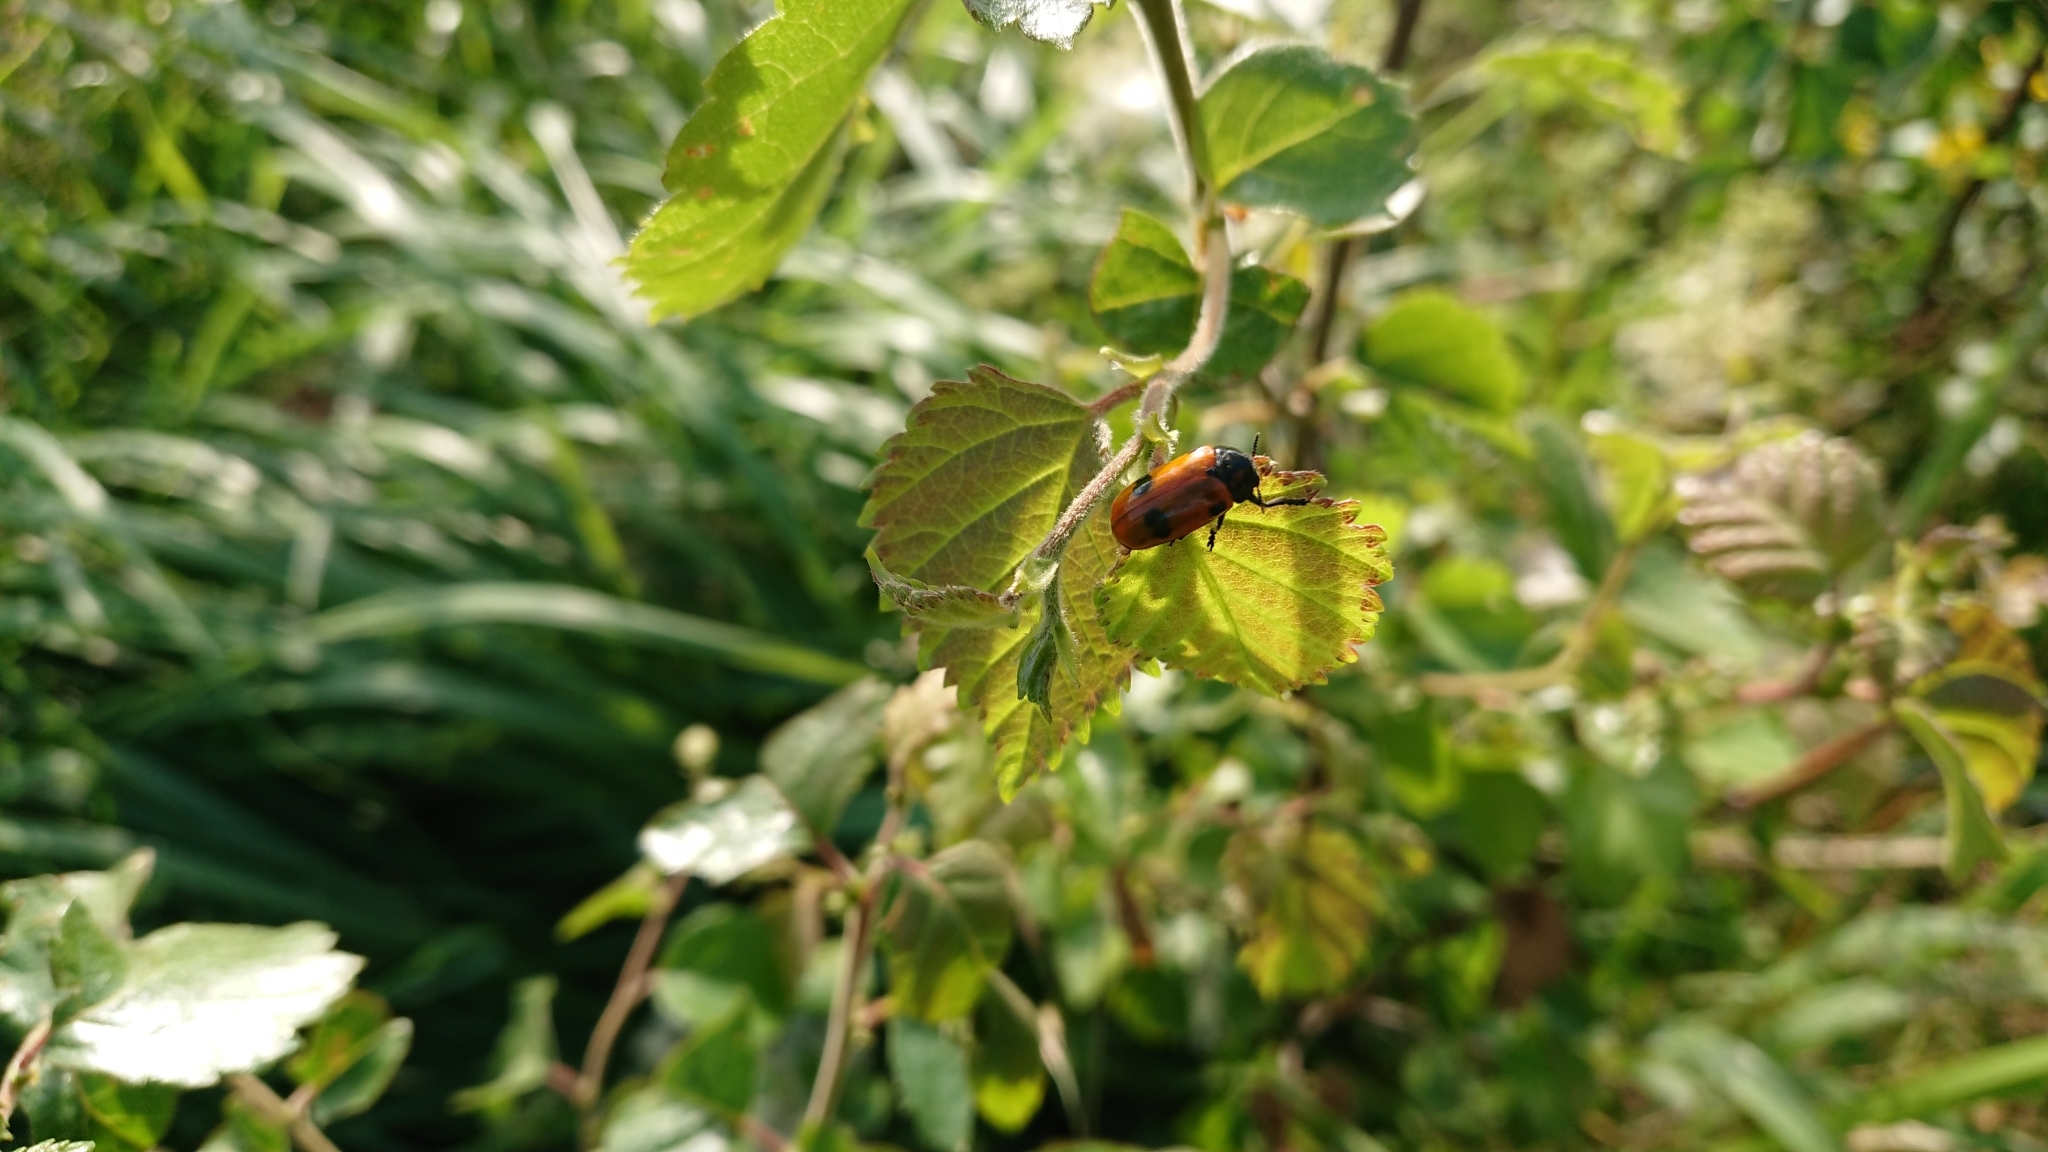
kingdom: Animalia
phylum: Arthropoda
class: Insecta
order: Coleoptera
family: Chrysomelidae
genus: Clytra
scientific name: Clytra quadripunctata
